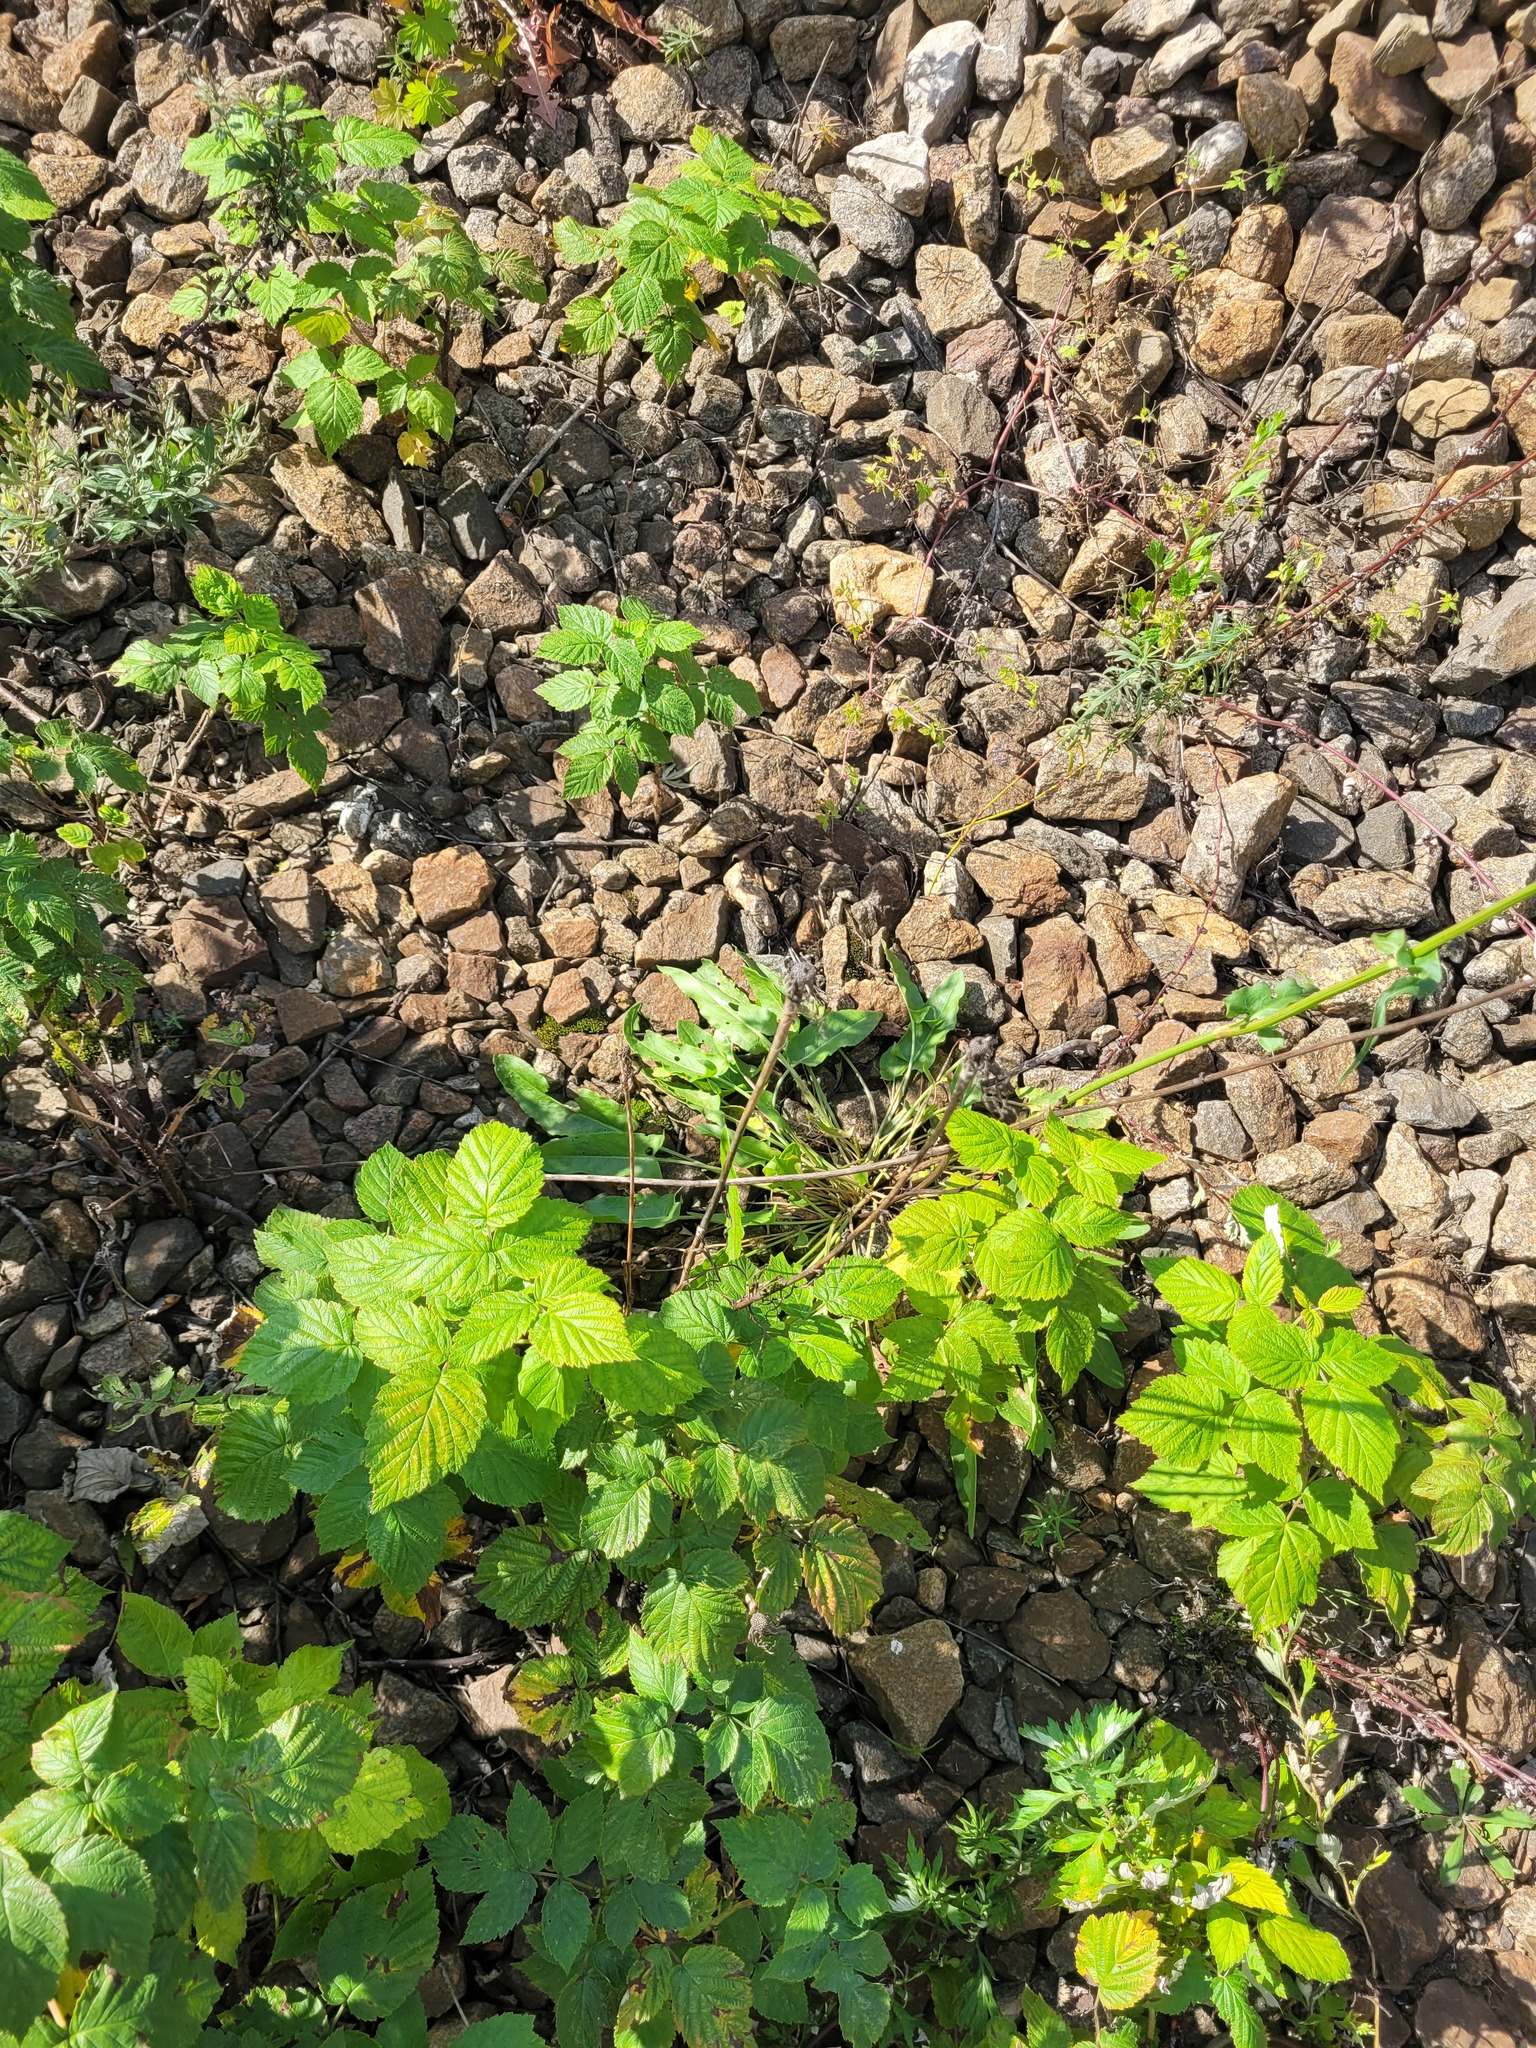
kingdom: Plantae
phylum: Tracheophyta
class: Magnoliopsida
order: Asterales
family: Asteraceae
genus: Tragopogon
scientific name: Tragopogon dubius
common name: Yellow salsify
